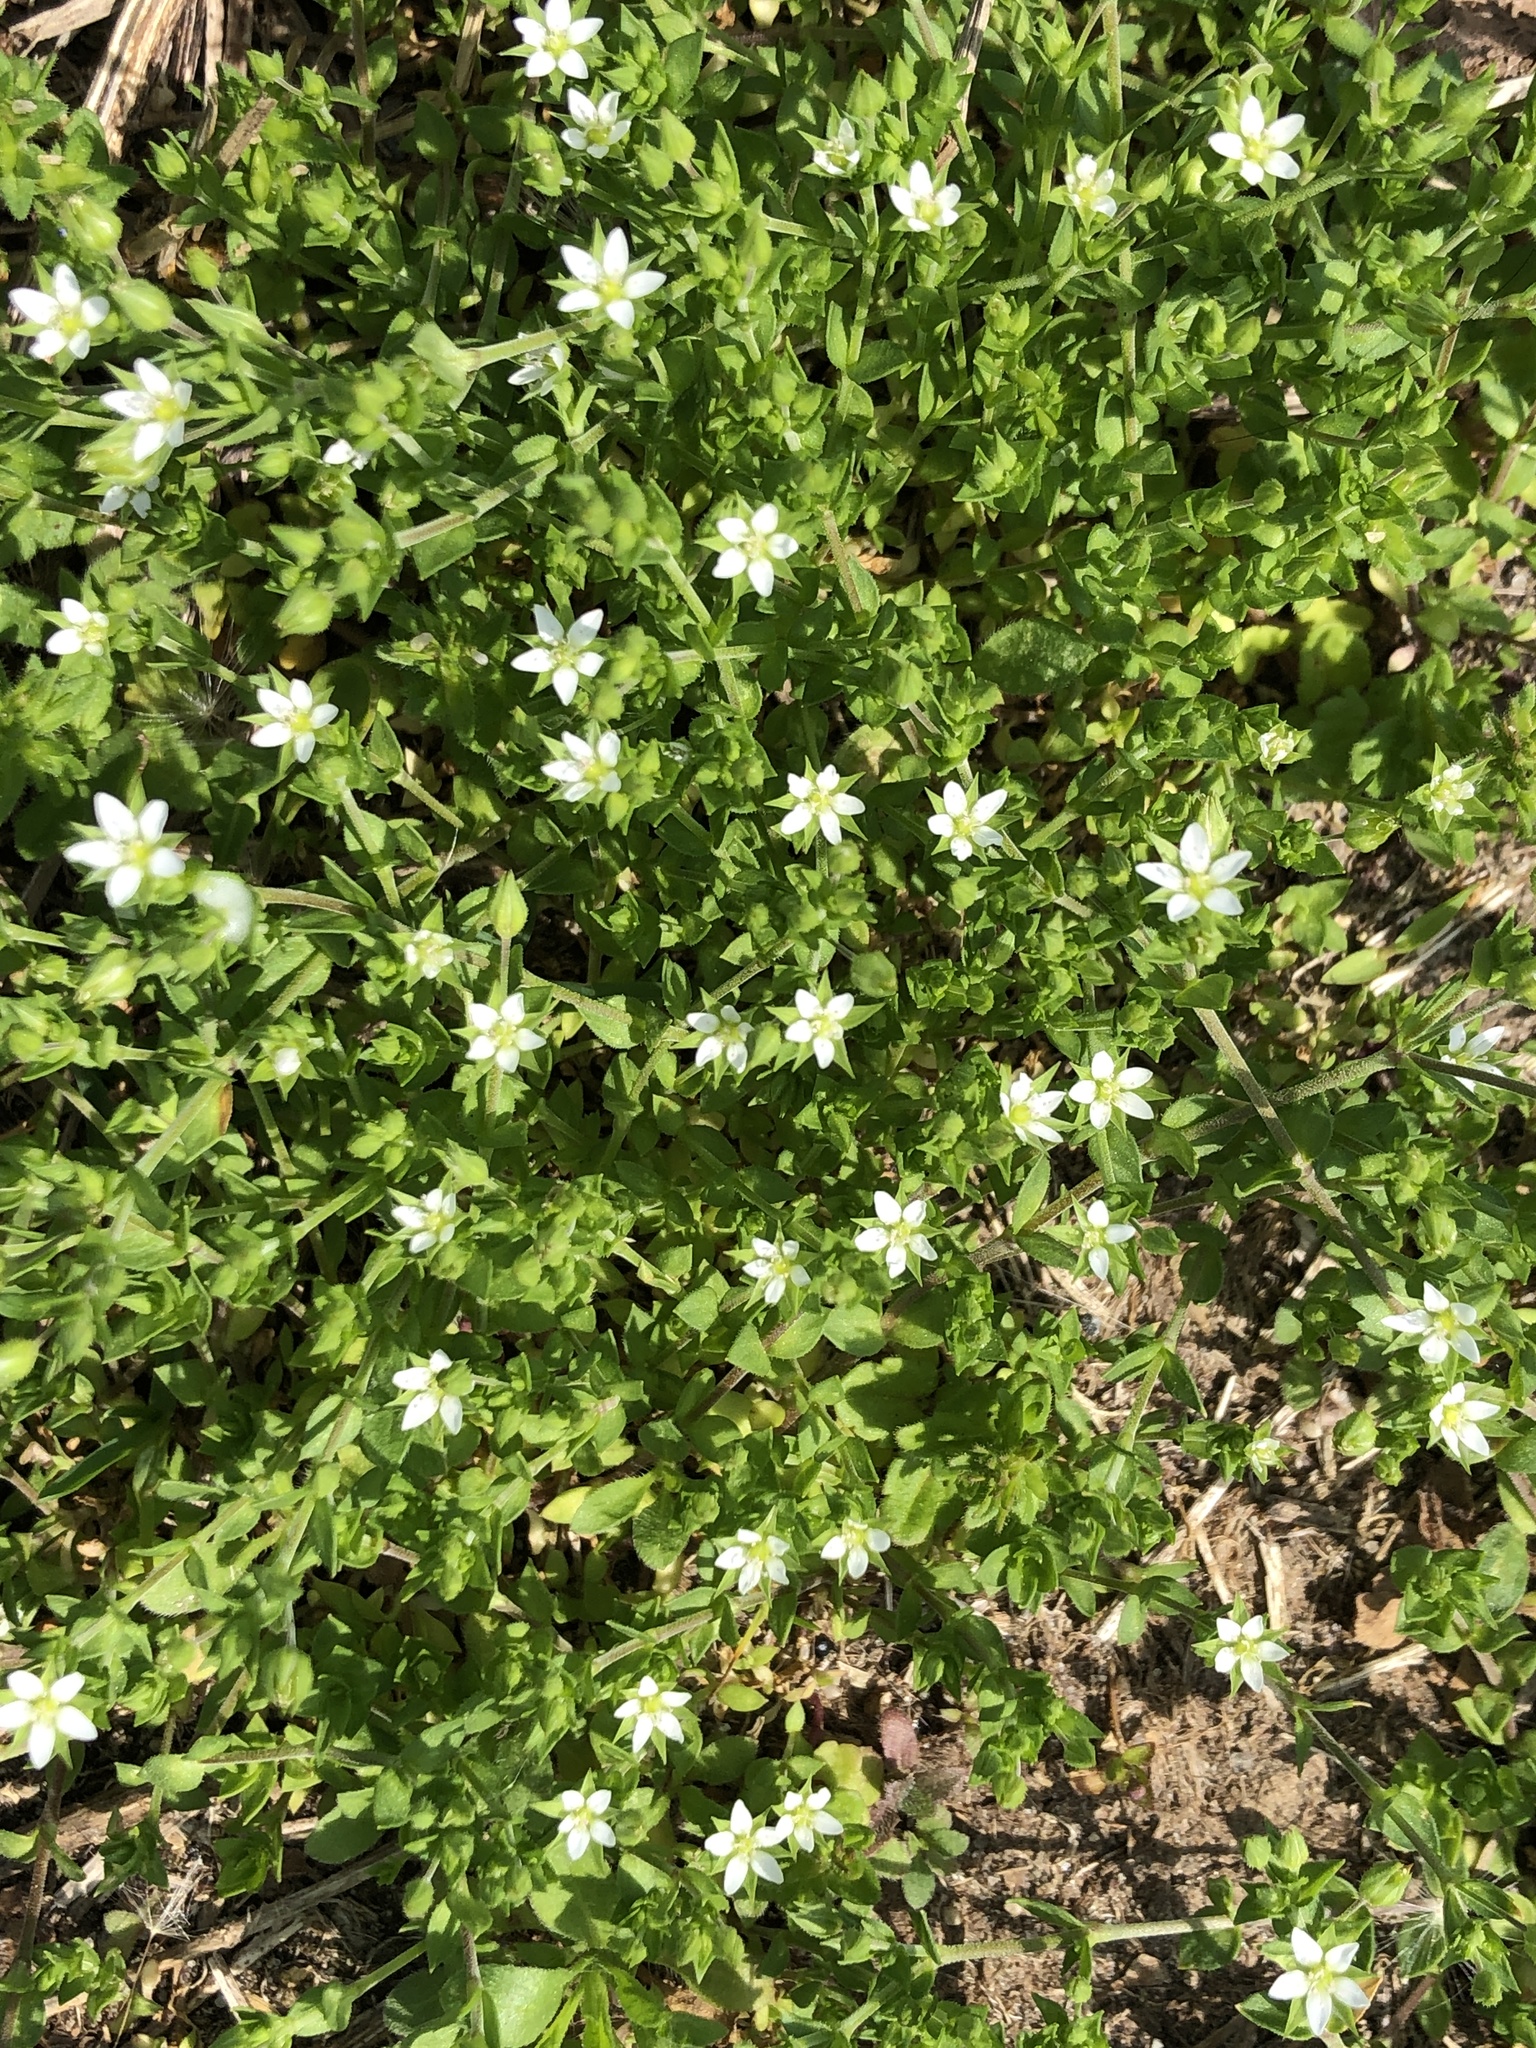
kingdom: Plantae
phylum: Tracheophyta
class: Magnoliopsida
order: Caryophyllales
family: Caryophyllaceae
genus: Arenaria
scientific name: Arenaria serpyllifolia
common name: Thyme-leaved sandwort
